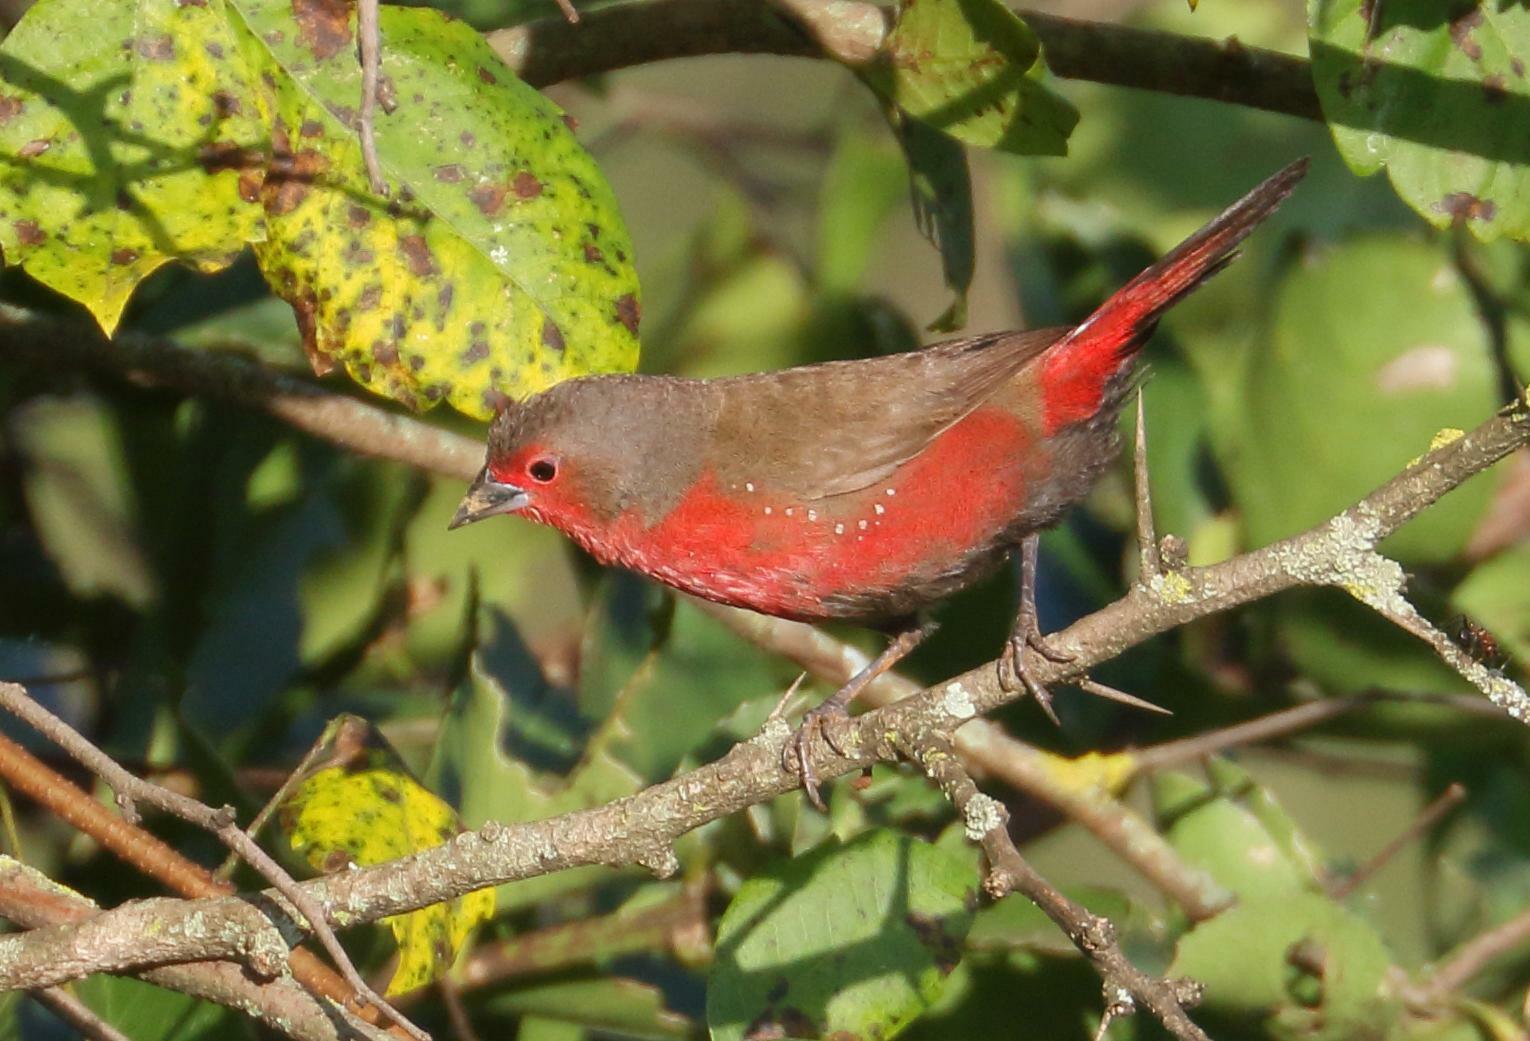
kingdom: Animalia
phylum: Chordata
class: Aves
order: Passeriformes
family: Estrildidae
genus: Lagonosticta
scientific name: Lagonosticta rubricata
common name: African firefinch
